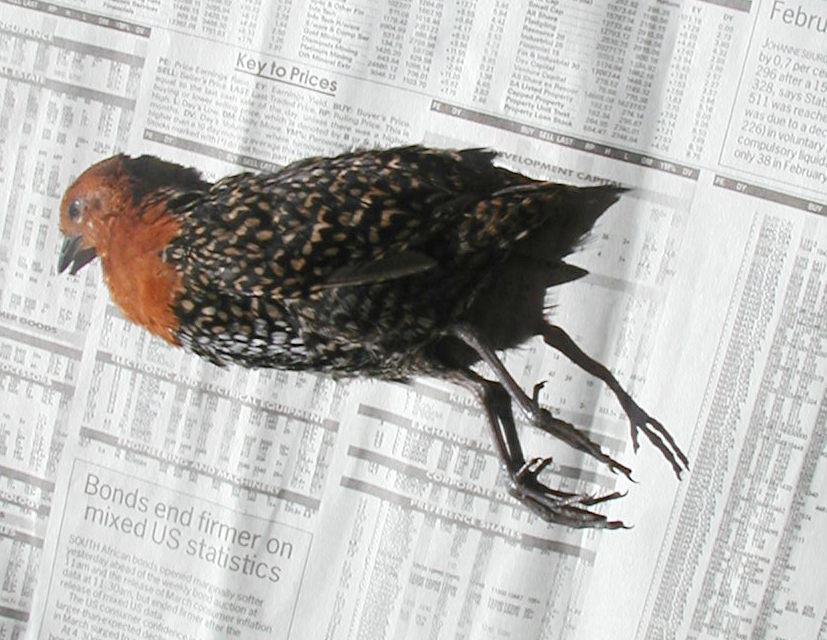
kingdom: Animalia
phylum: Chordata
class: Aves
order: Gruiformes
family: Rallidae
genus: Sarothrura
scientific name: Sarothrura elegans
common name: Buff-spotted flufftail
